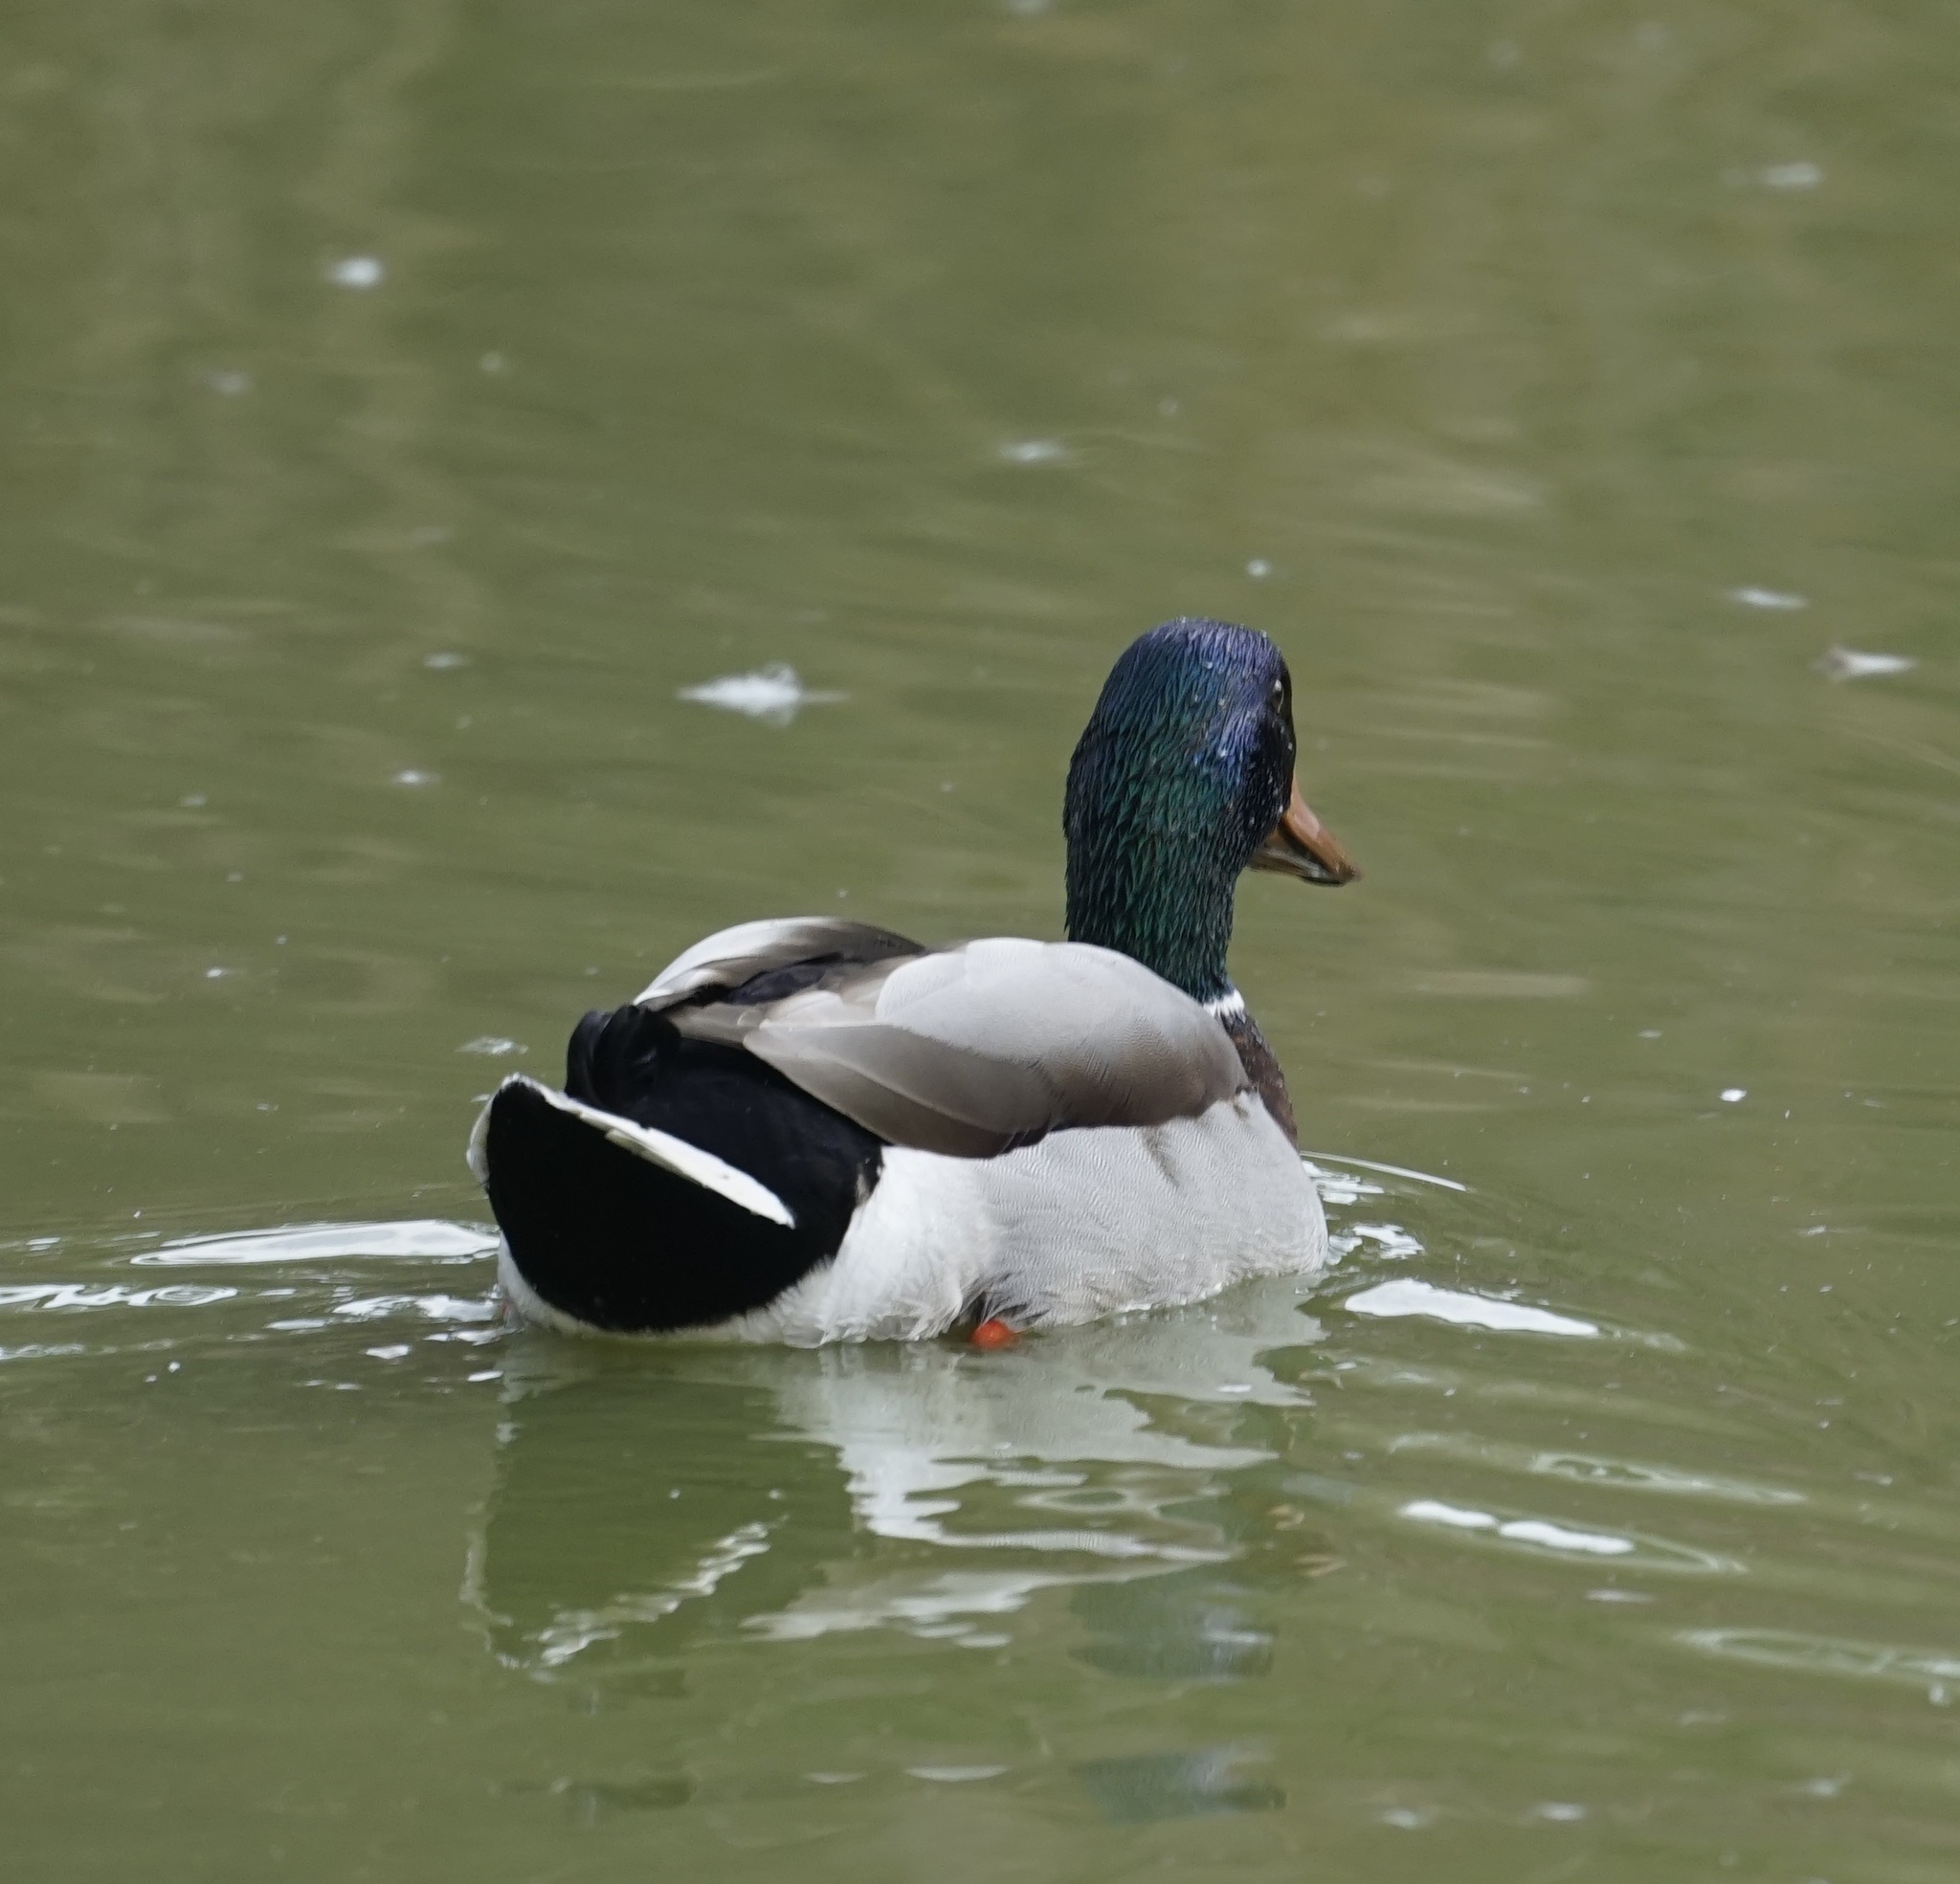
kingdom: Animalia
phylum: Chordata
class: Aves
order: Anseriformes
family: Anatidae
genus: Anas
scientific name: Anas platyrhynchos
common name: Mallard
